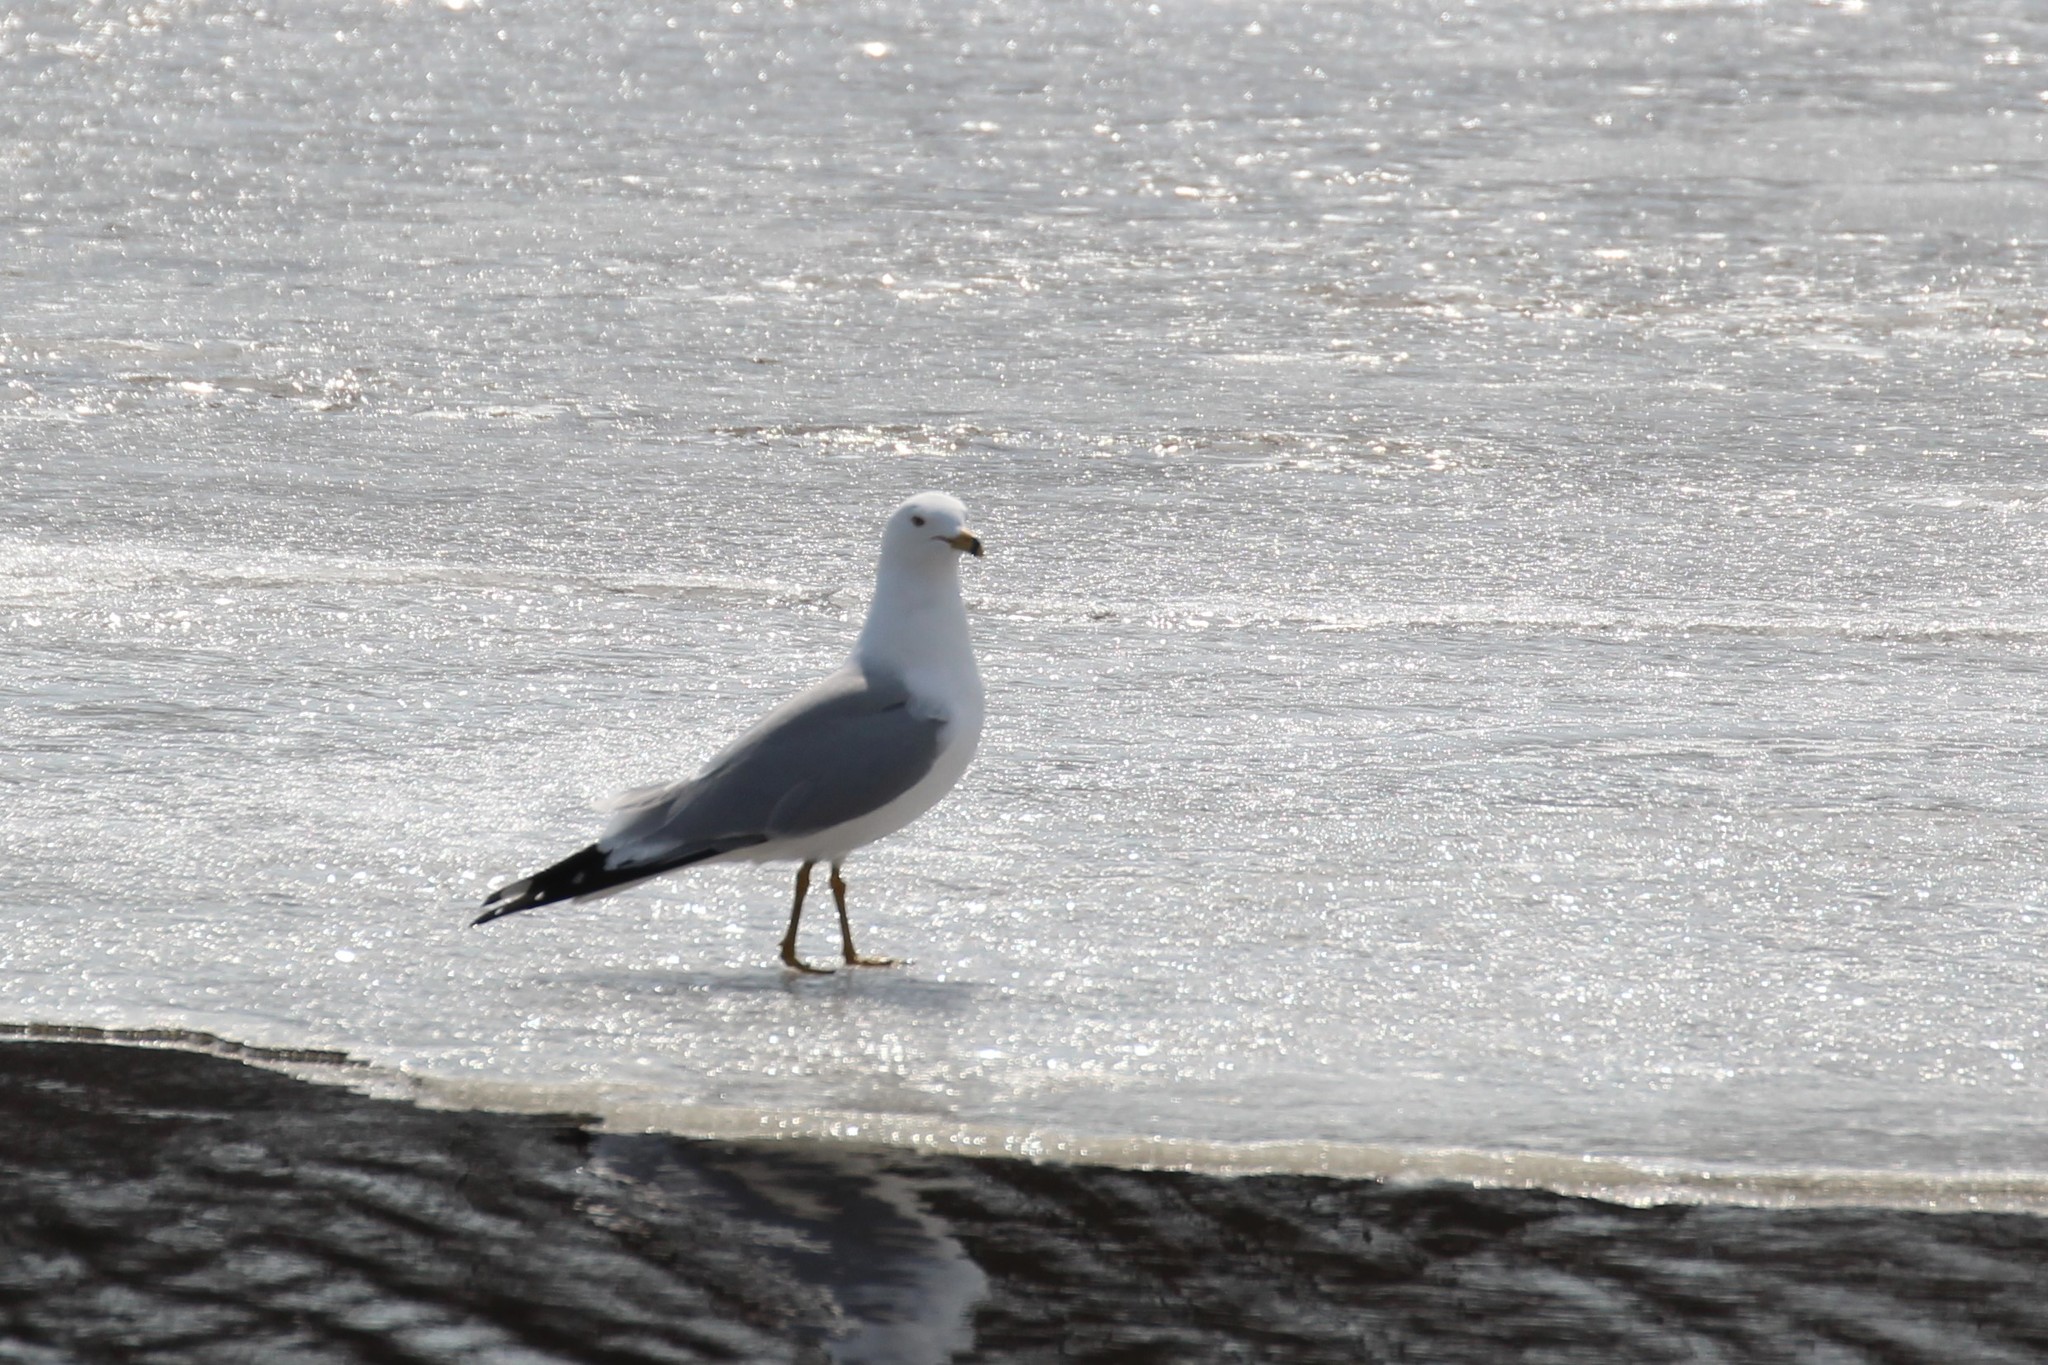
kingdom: Animalia
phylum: Chordata
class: Aves
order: Charadriiformes
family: Laridae
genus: Larus
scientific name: Larus delawarensis
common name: Ring-billed gull
